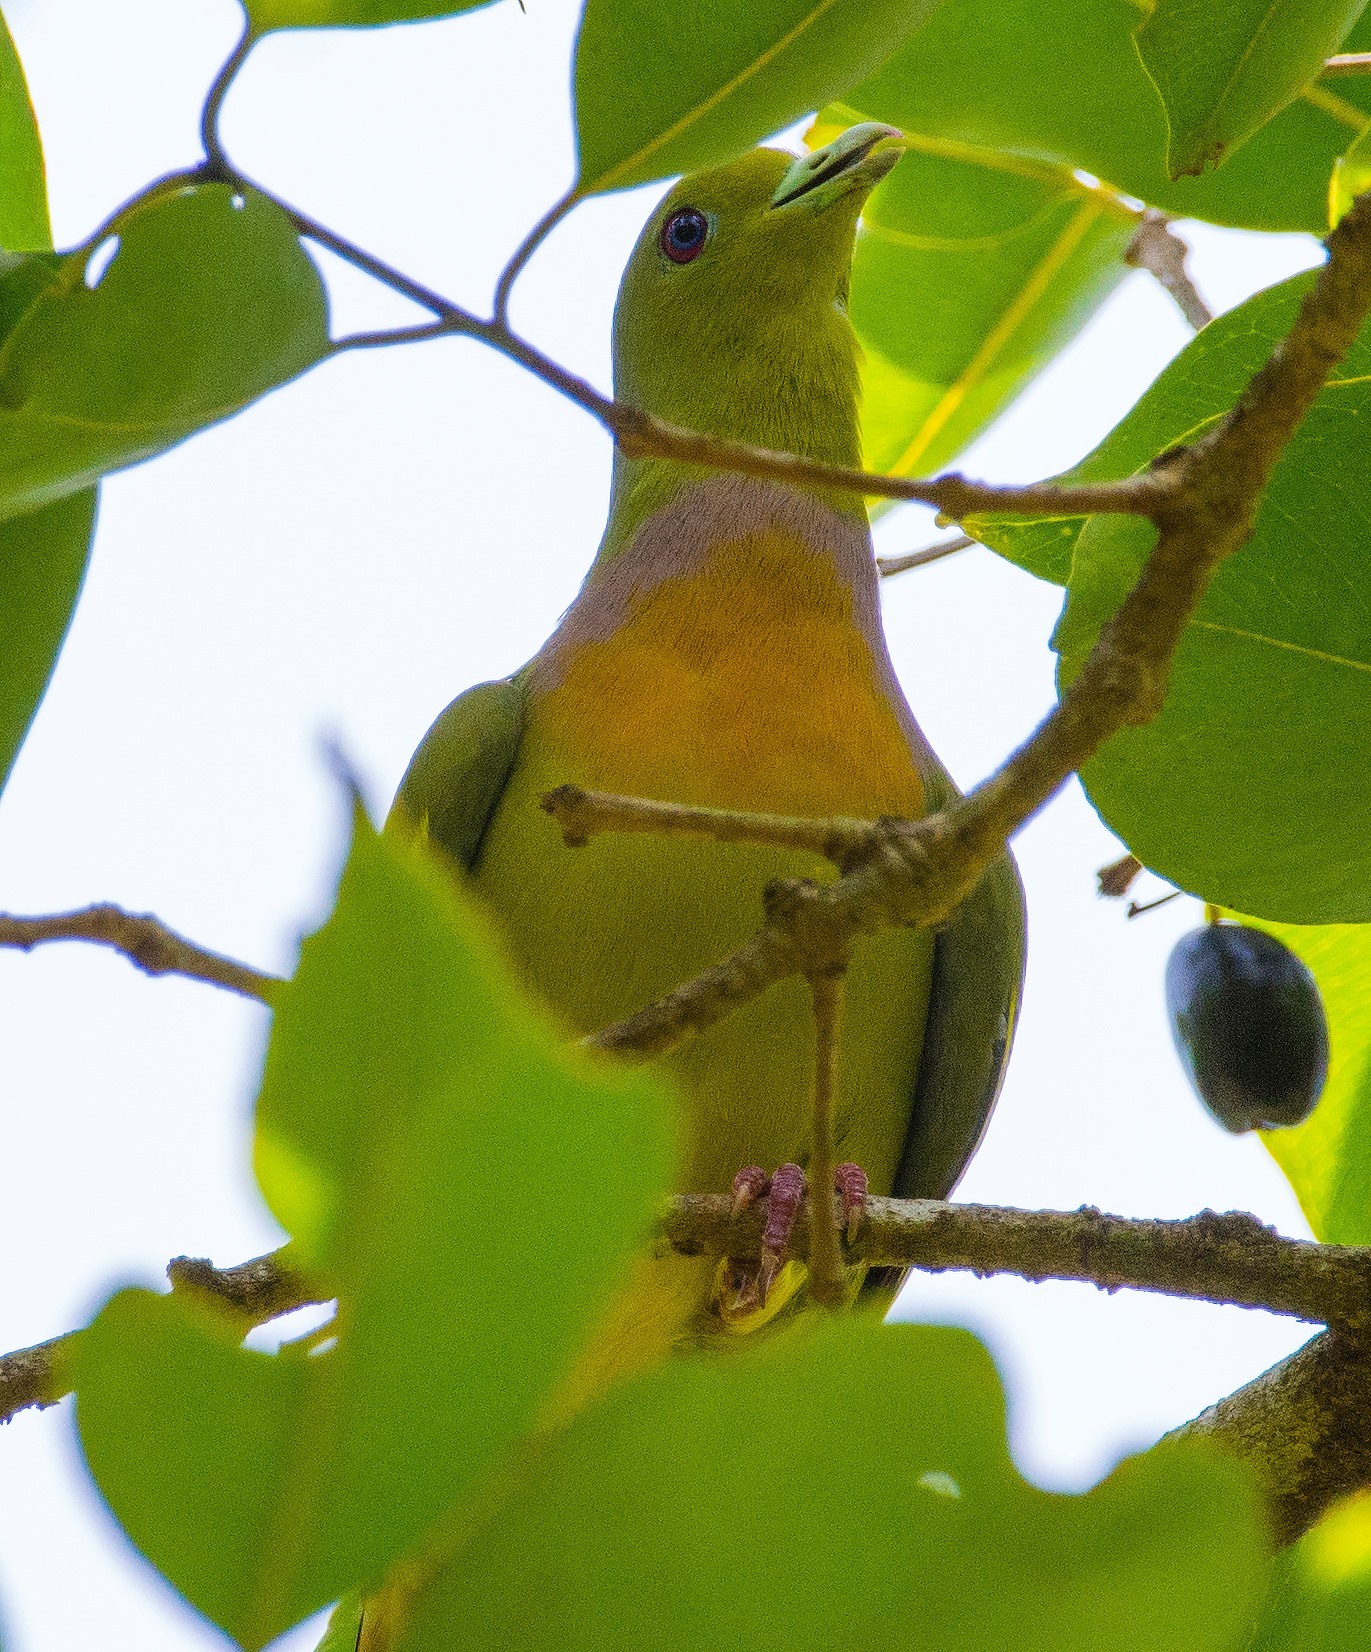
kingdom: Animalia
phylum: Chordata
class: Aves
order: Columbiformes
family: Columbidae
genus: Treron
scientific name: Treron bicinctus
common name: Orange-breasted green pigeon
